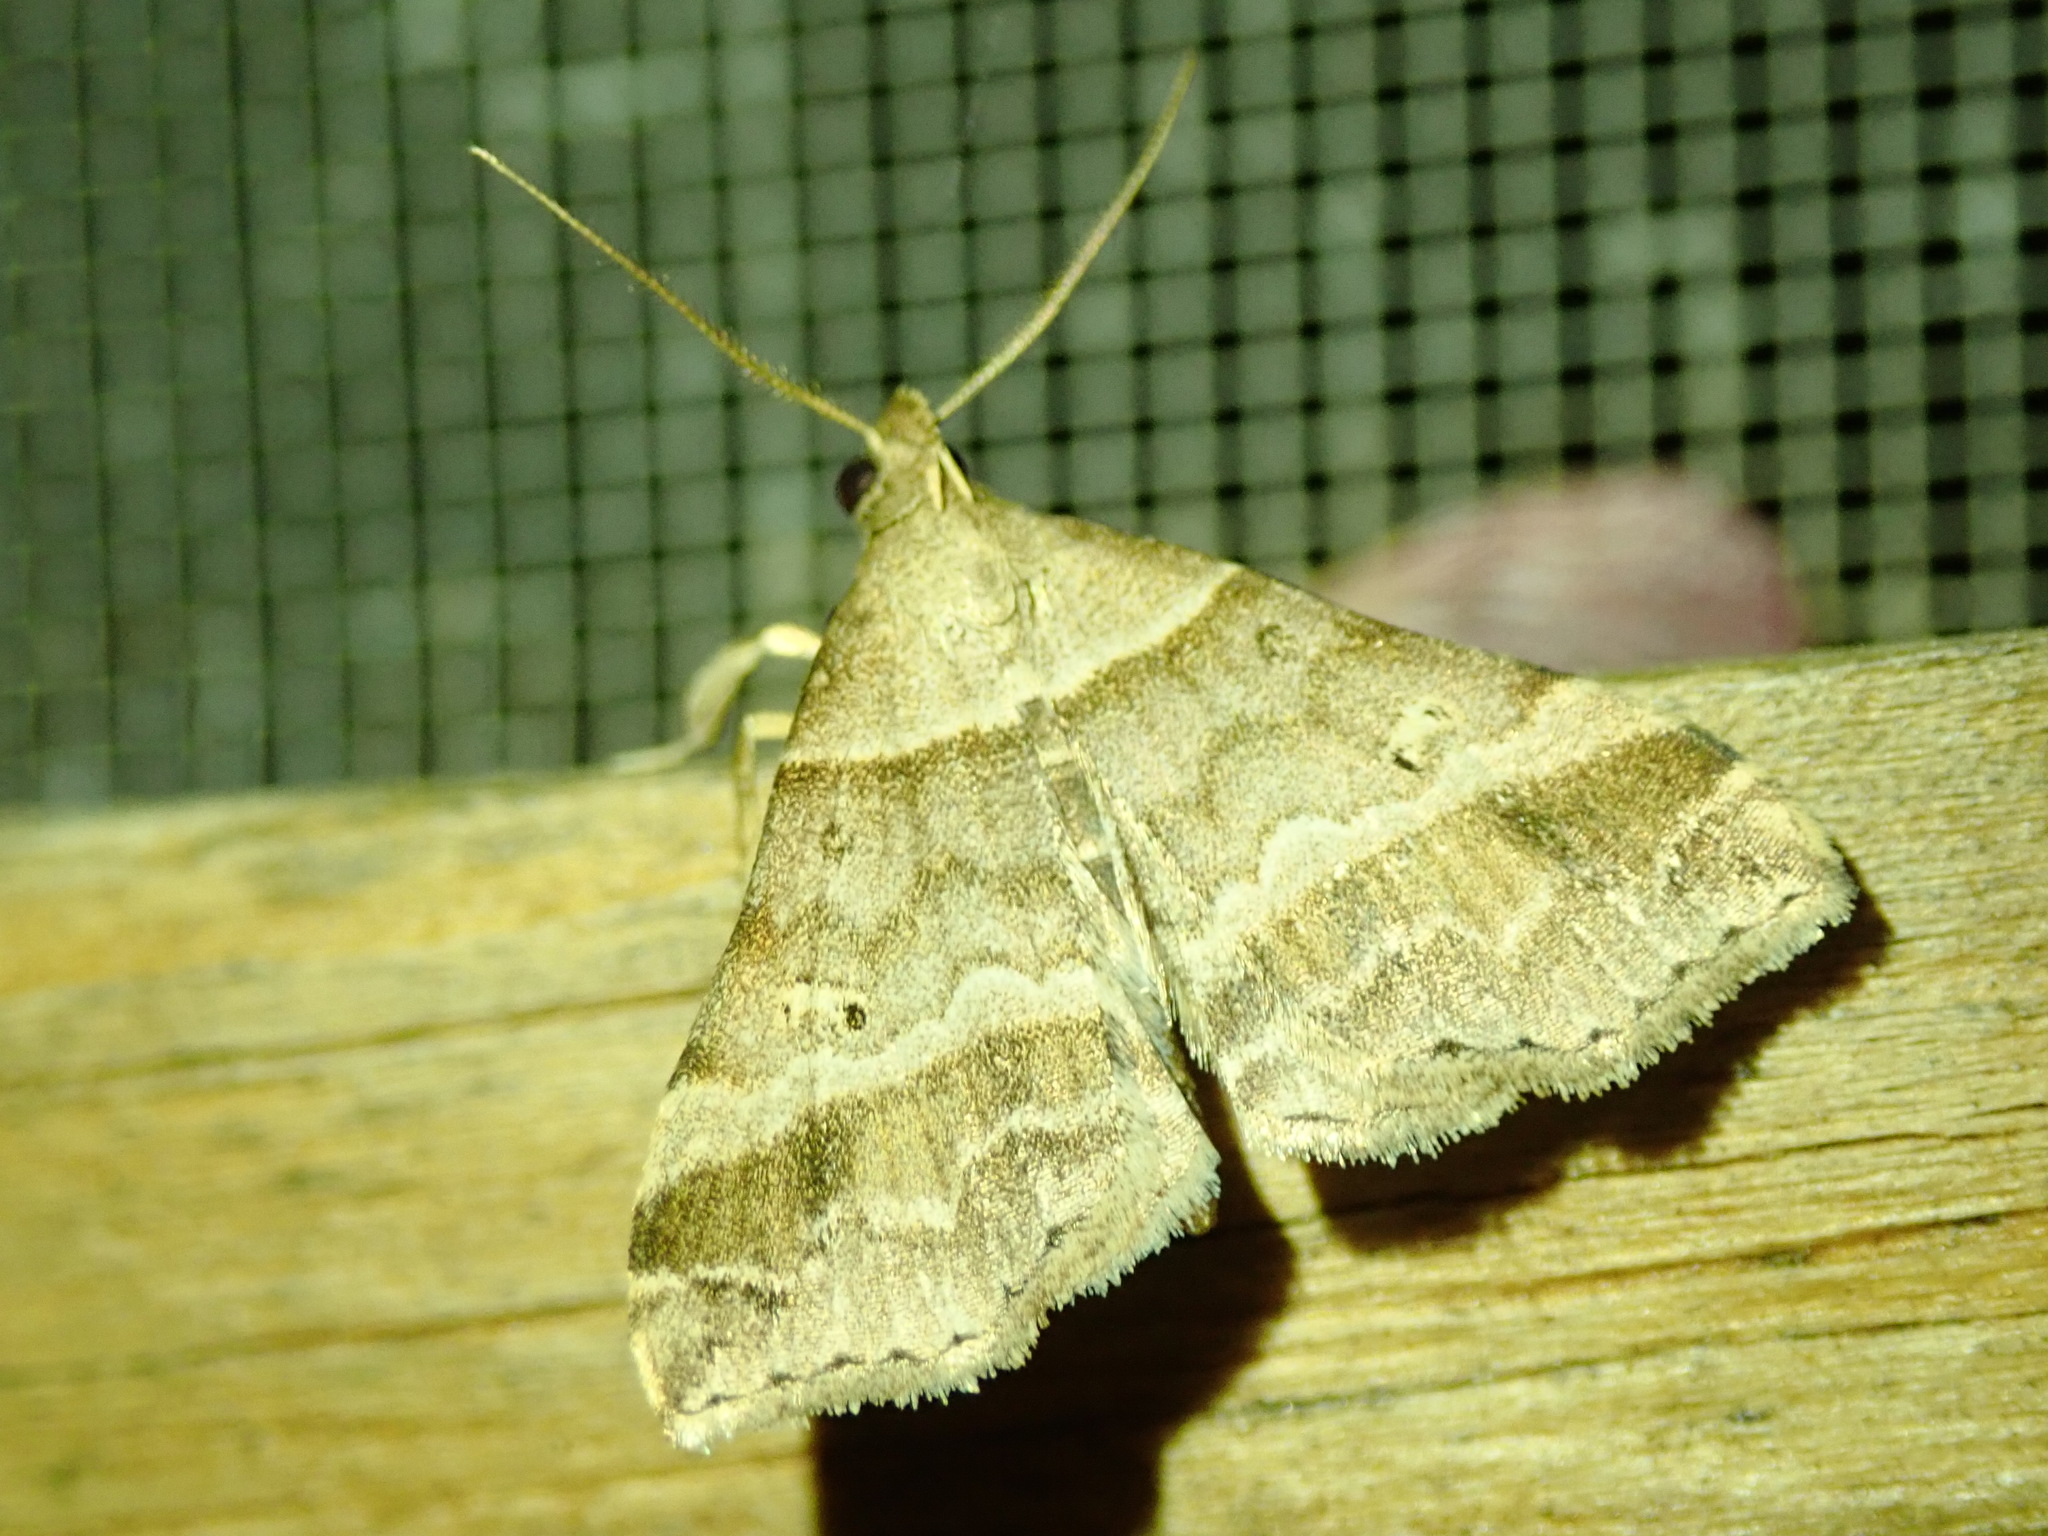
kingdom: Animalia
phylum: Arthropoda
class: Insecta
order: Lepidoptera
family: Erebidae
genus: Phaeolita
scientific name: Phaeolita pyramusalis
